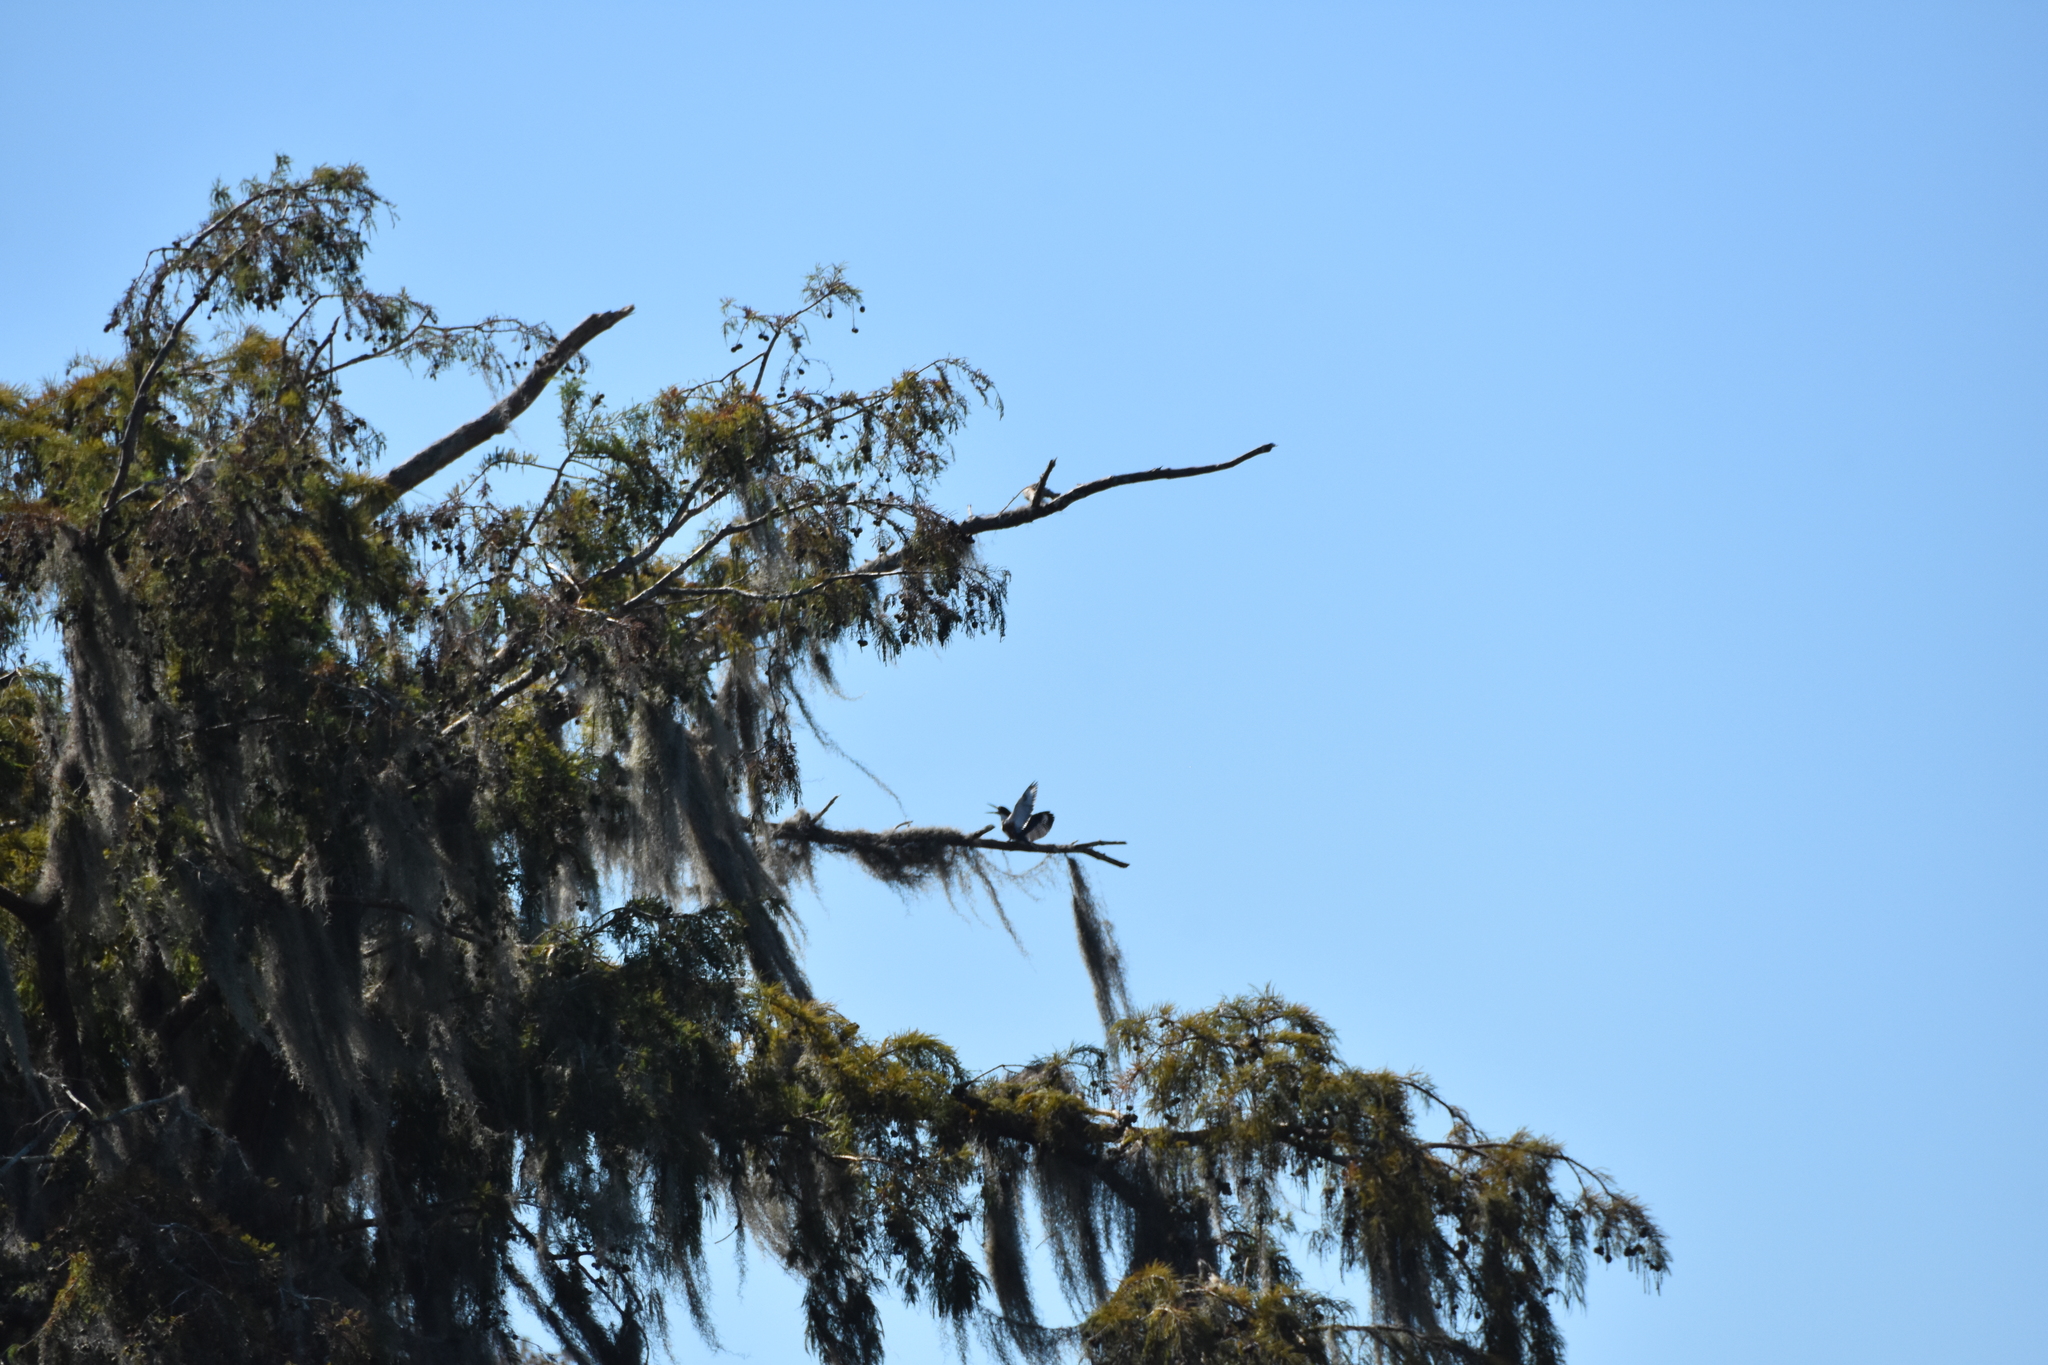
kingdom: Animalia
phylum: Chordata
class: Aves
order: Coraciiformes
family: Alcedinidae
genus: Megaceryle
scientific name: Megaceryle alcyon
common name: Belted kingfisher
